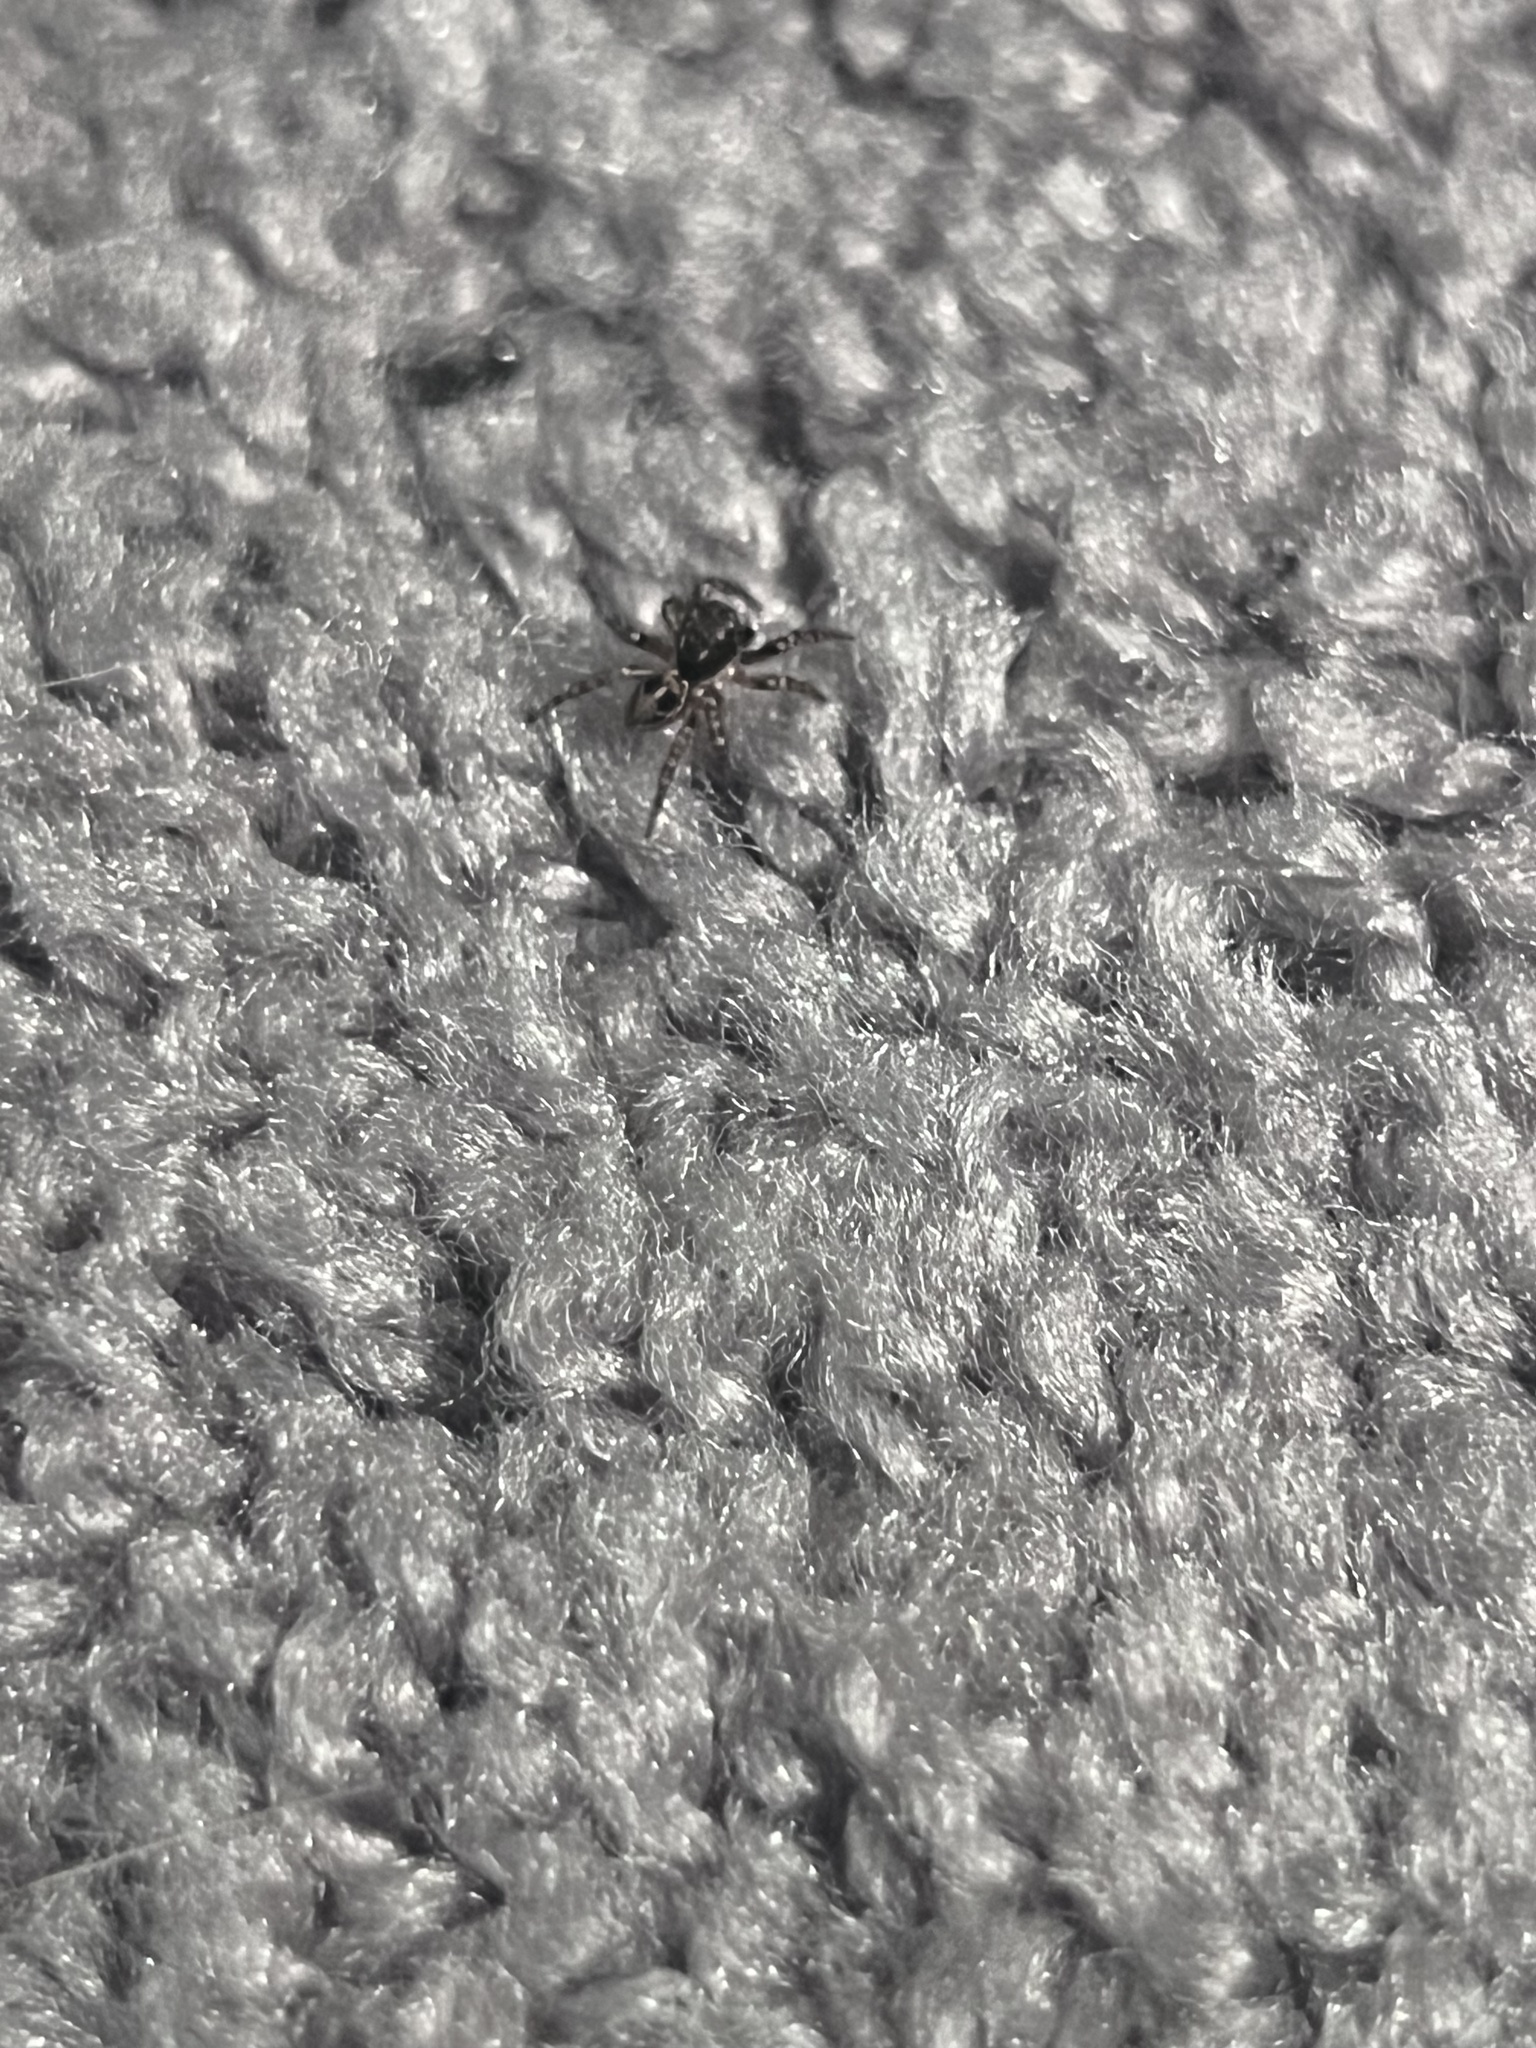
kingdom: Animalia
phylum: Arthropoda
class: Arachnida
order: Araneae
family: Salticidae
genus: Anasaitis
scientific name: Anasaitis canosa
